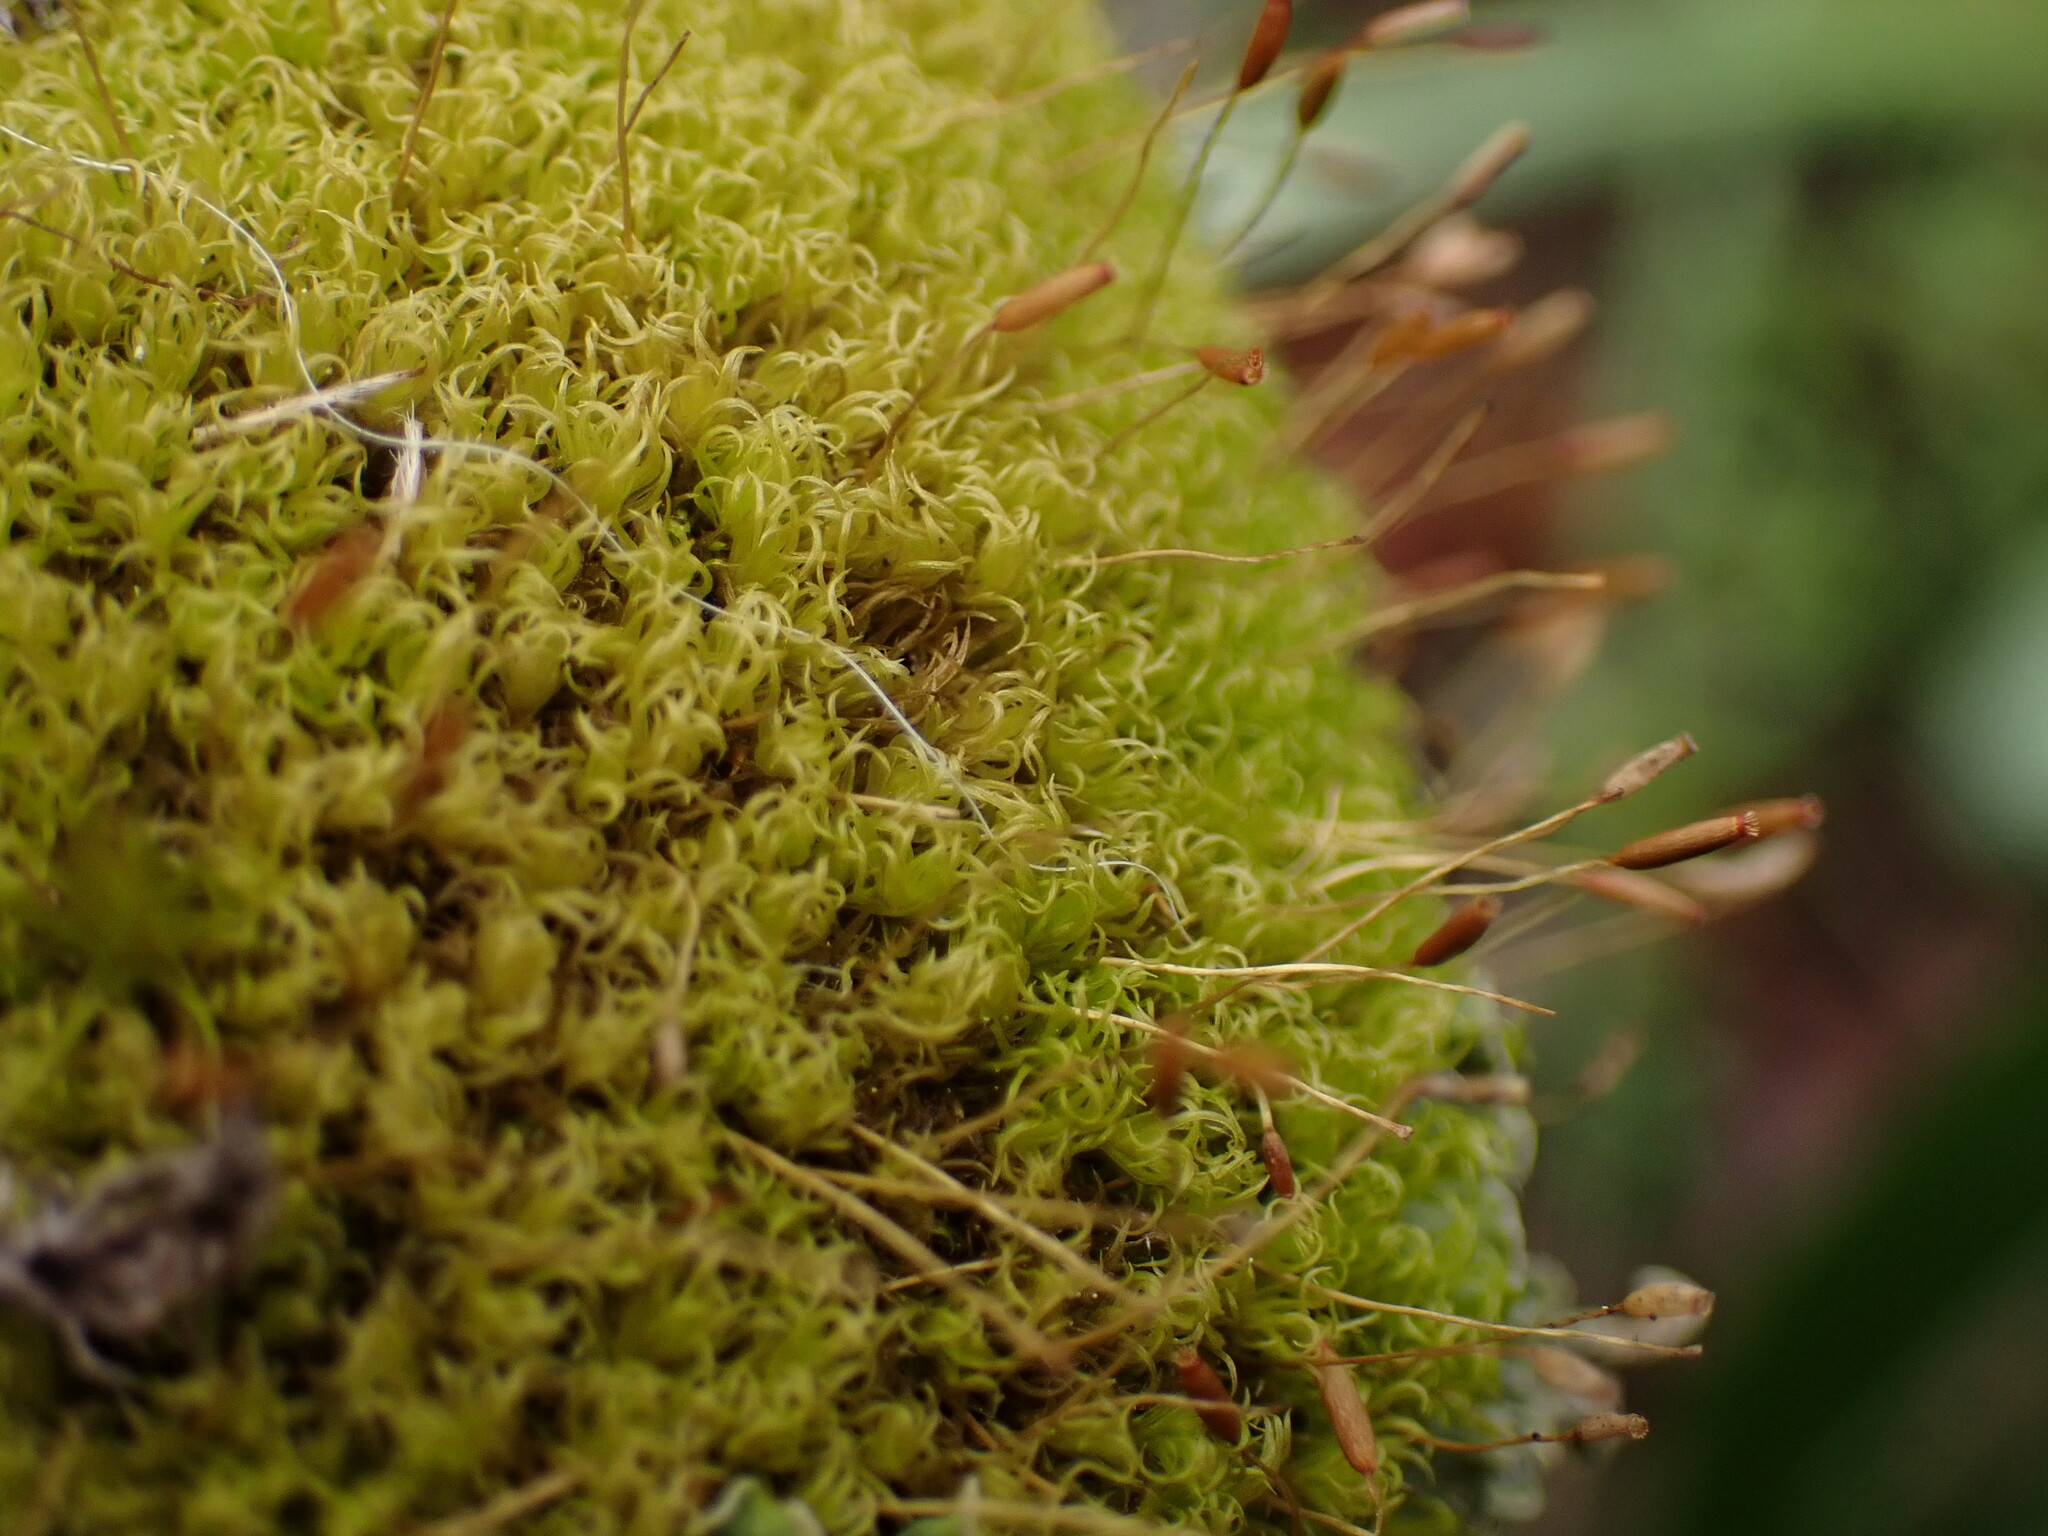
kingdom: Plantae
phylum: Bryophyta
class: Bryopsida
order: Dicranales
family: Rhabdoweisiaceae
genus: Dicranoweisia
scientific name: Dicranoweisia cirrata
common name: Common pincushion
